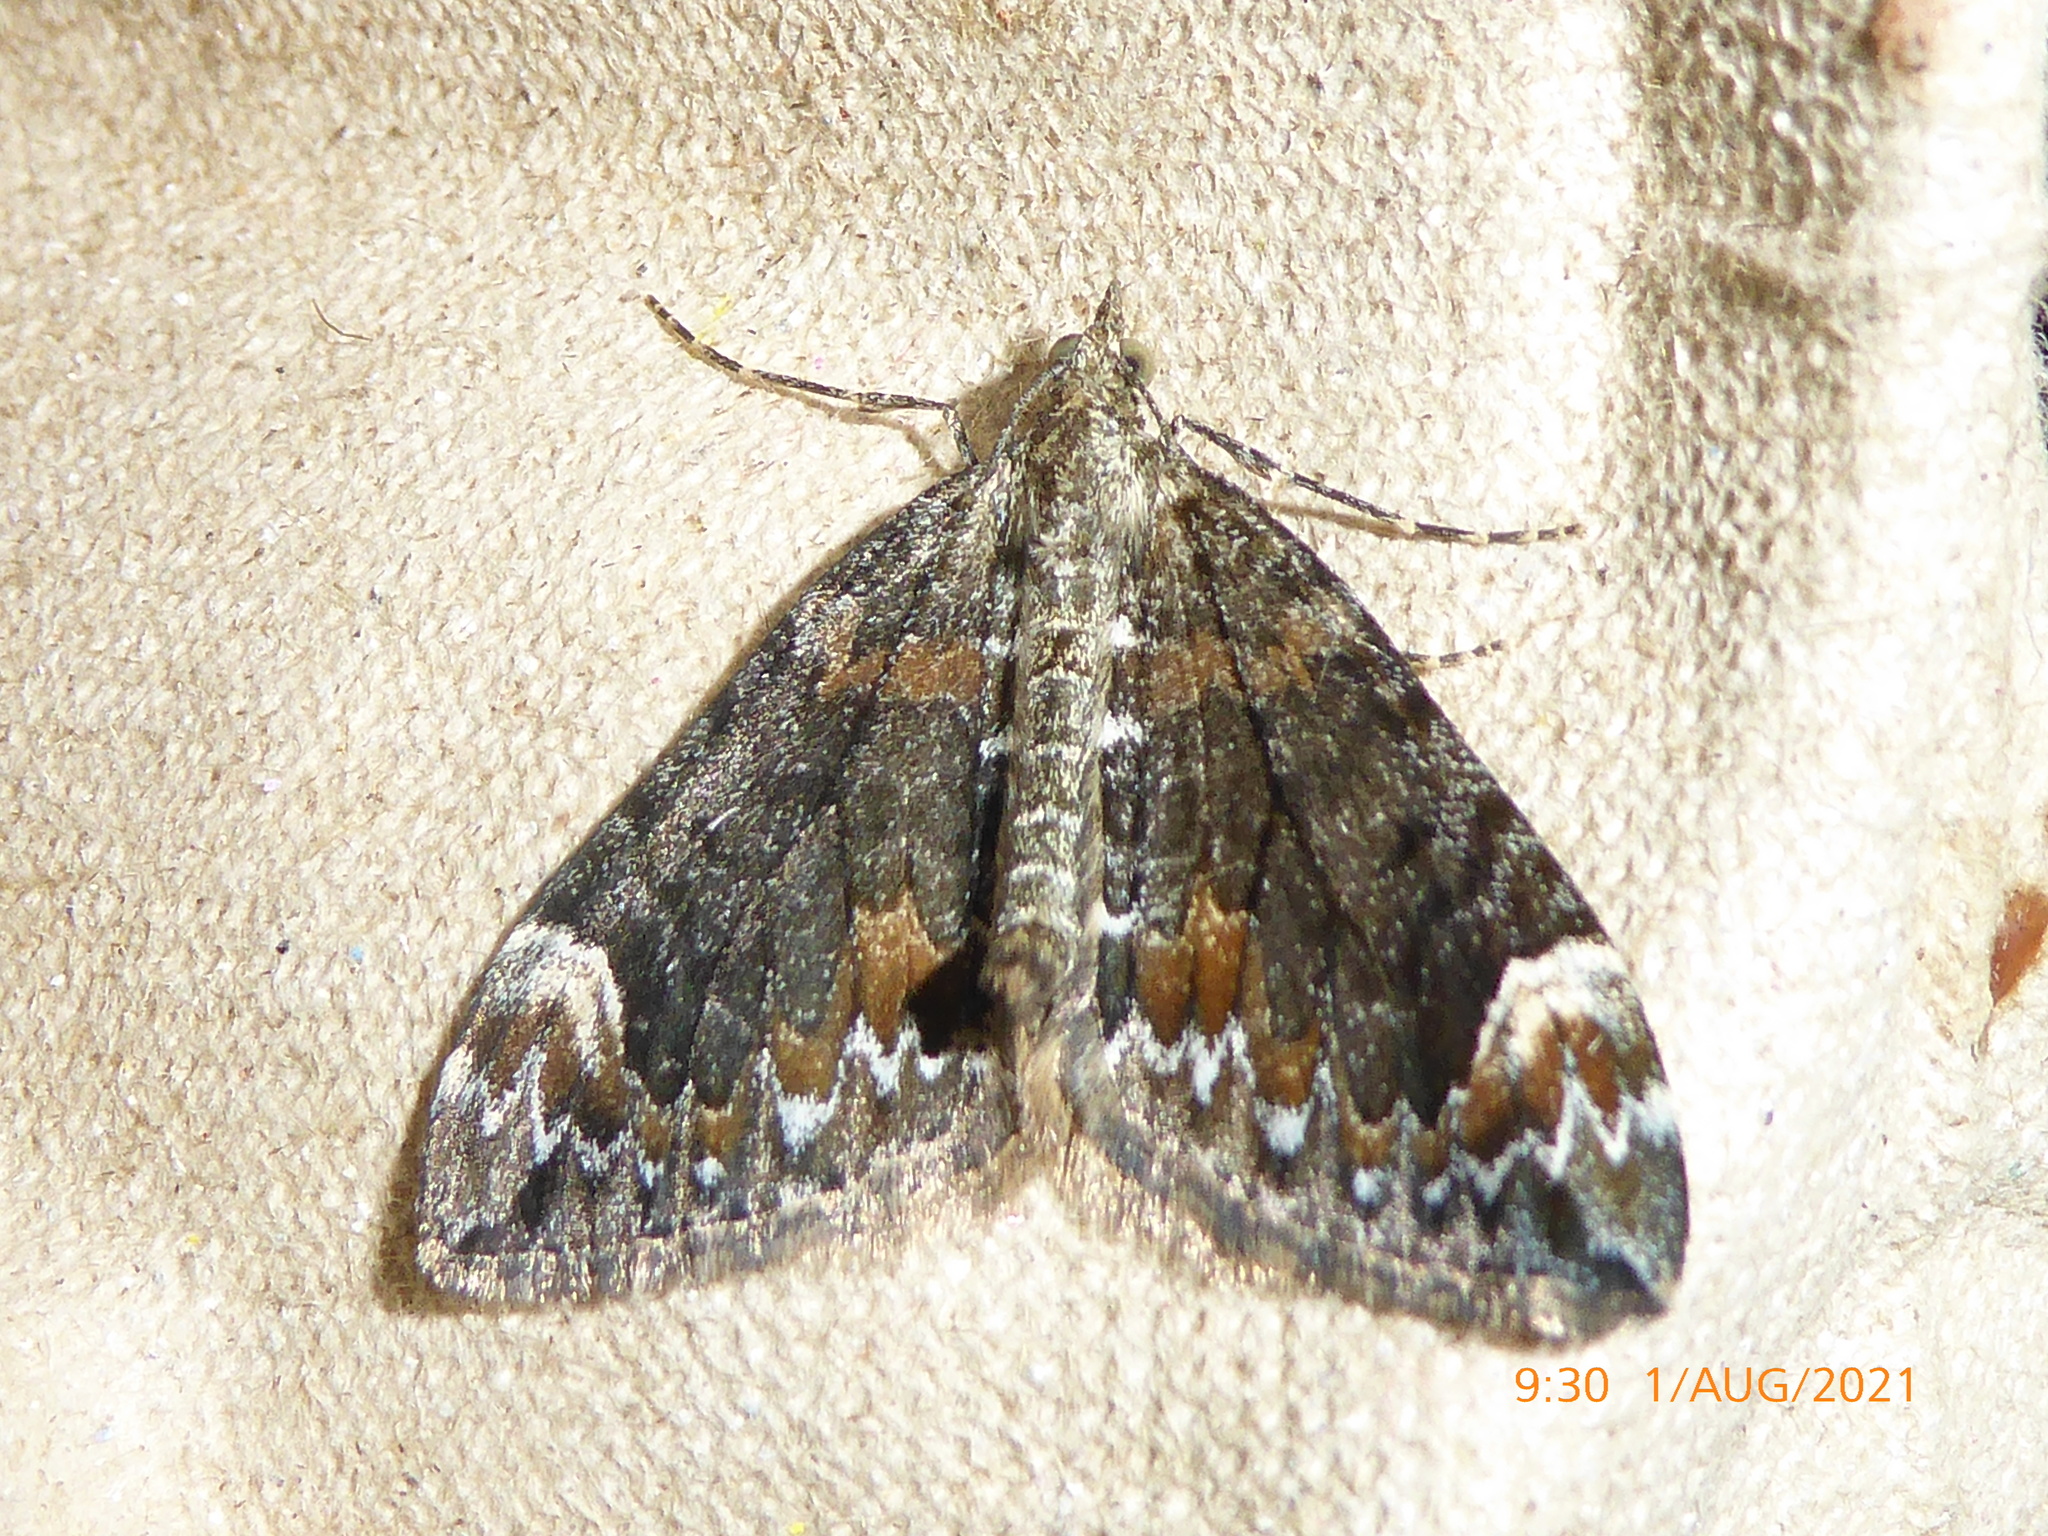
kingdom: Animalia
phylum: Arthropoda
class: Insecta
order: Lepidoptera
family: Geometridae
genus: Dysstroma
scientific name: Dysstroma truncata
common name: Common marbled carpet
